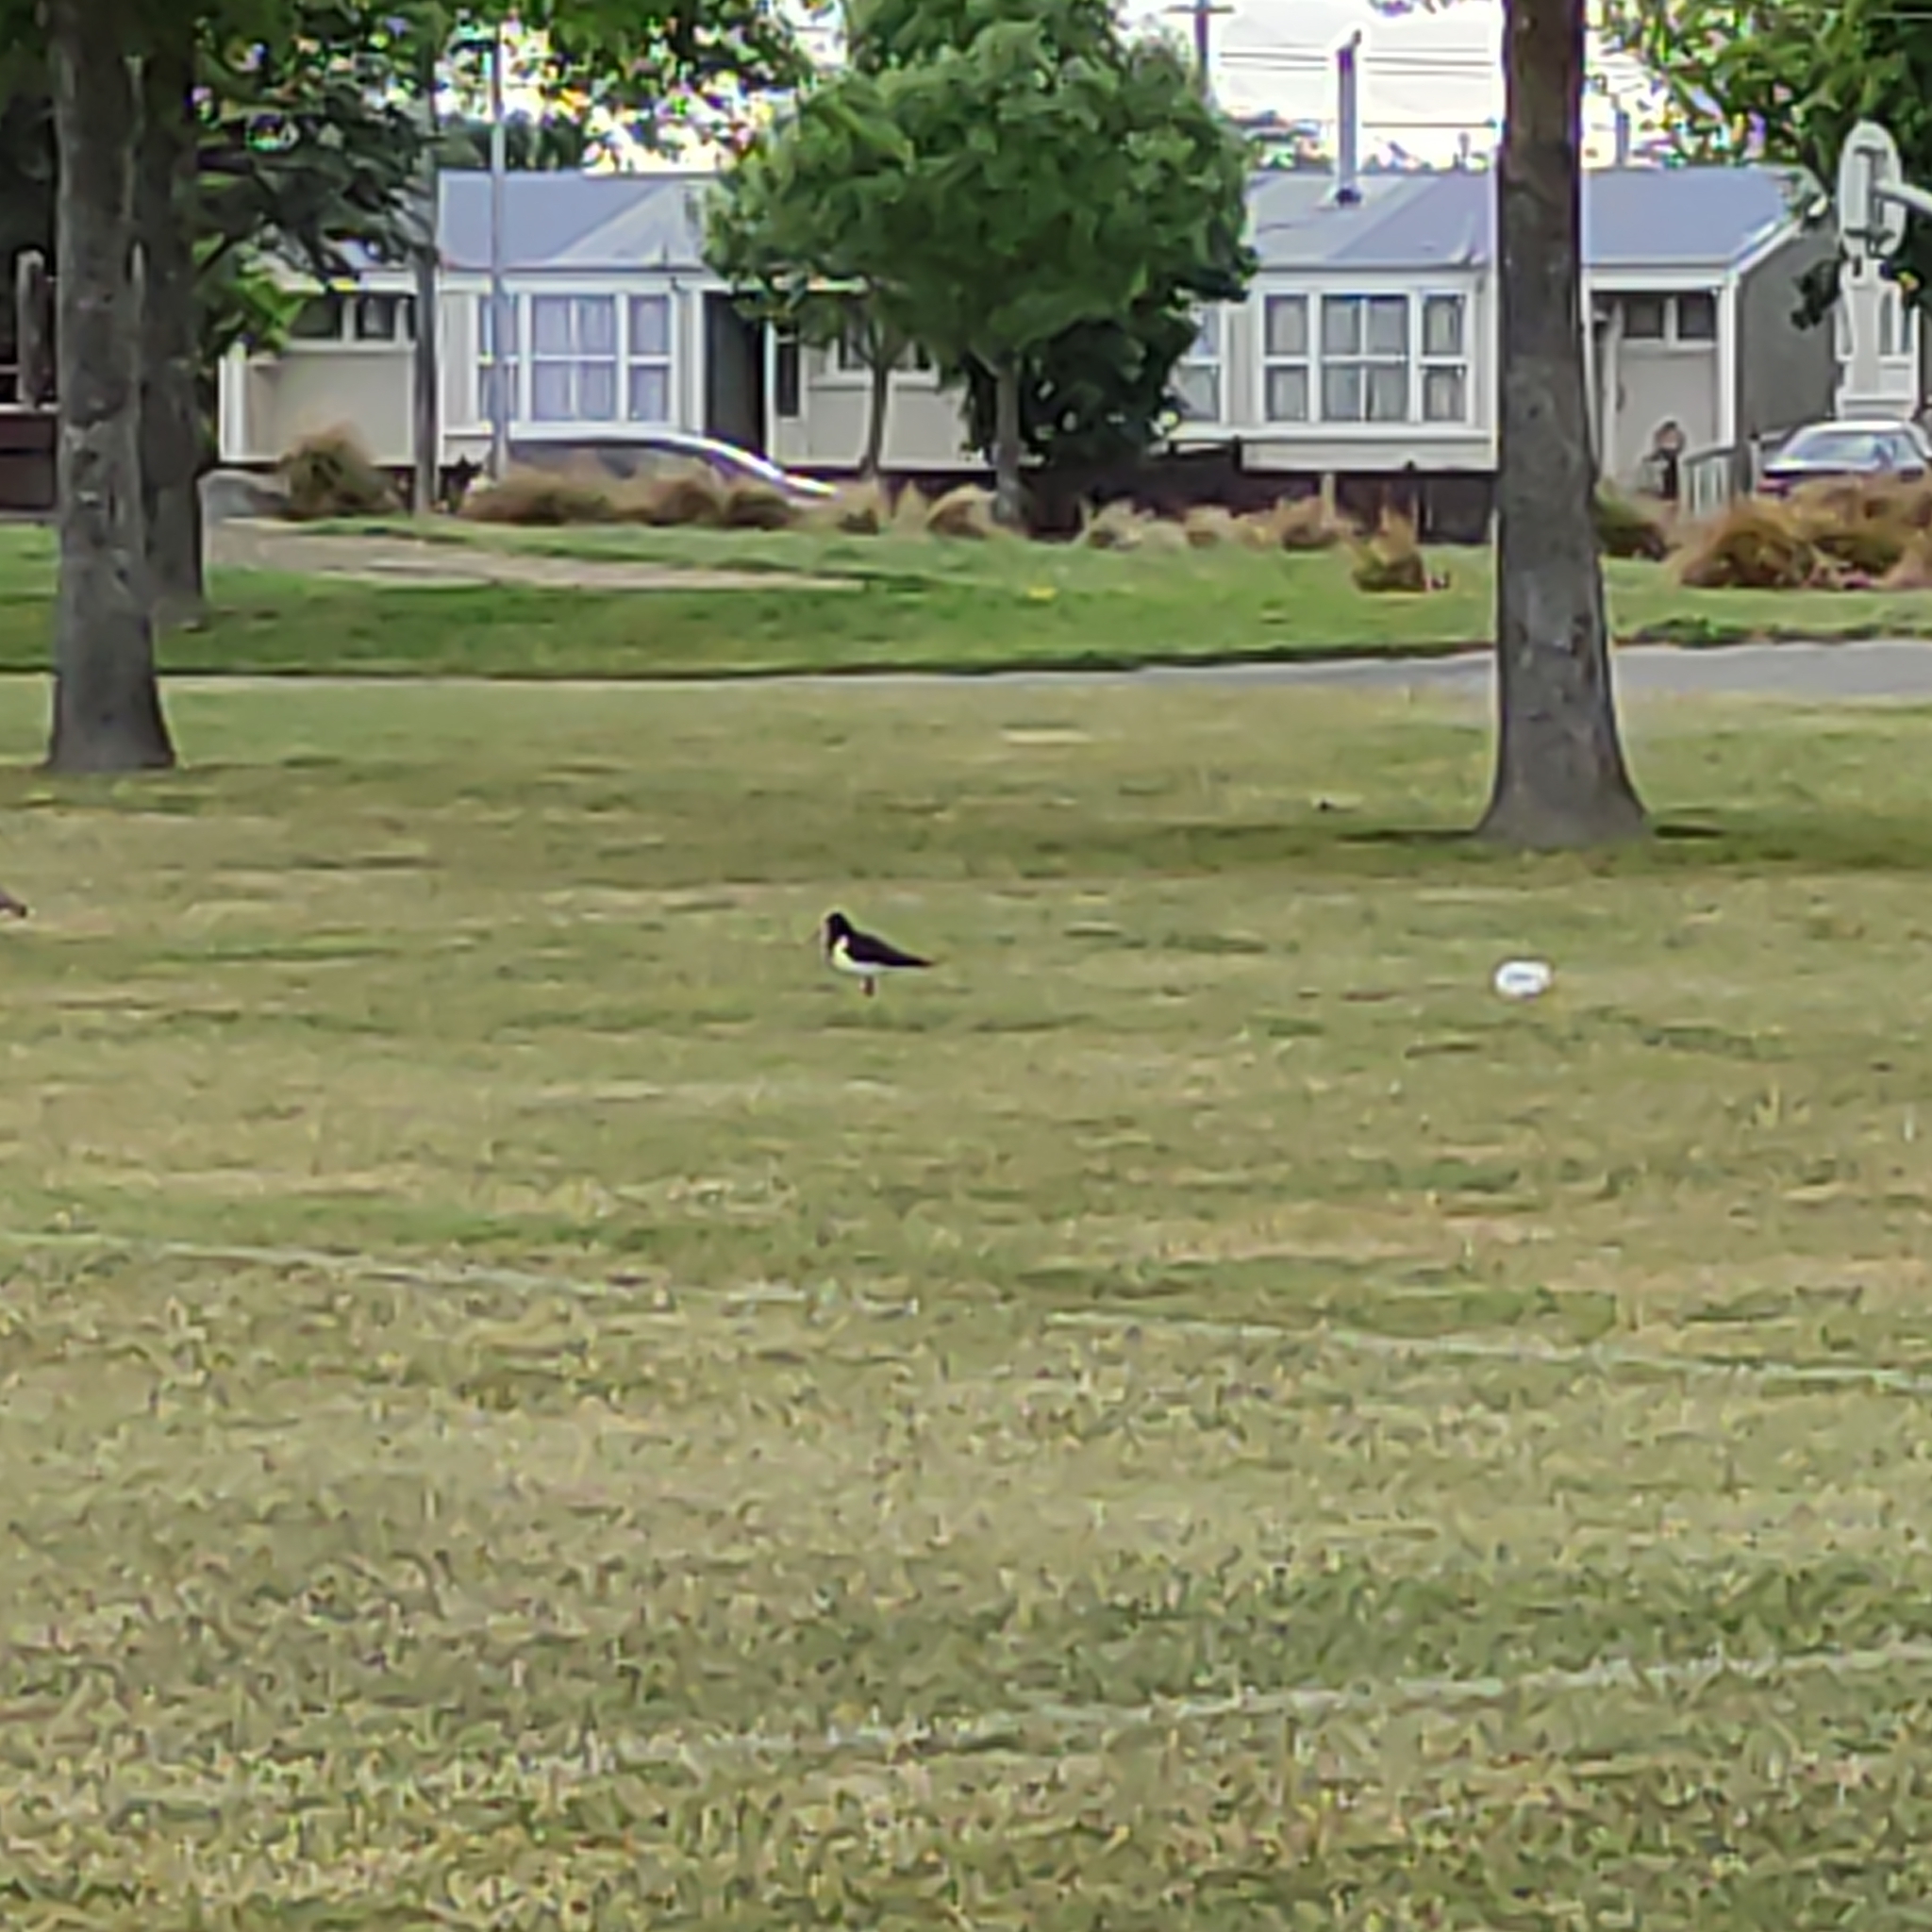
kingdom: Animalia
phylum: Chordata
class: Aves
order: Charadriiformes
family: Haematopodidae
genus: Haematopus
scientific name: Haematopus finschi
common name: South island oystercatcher
